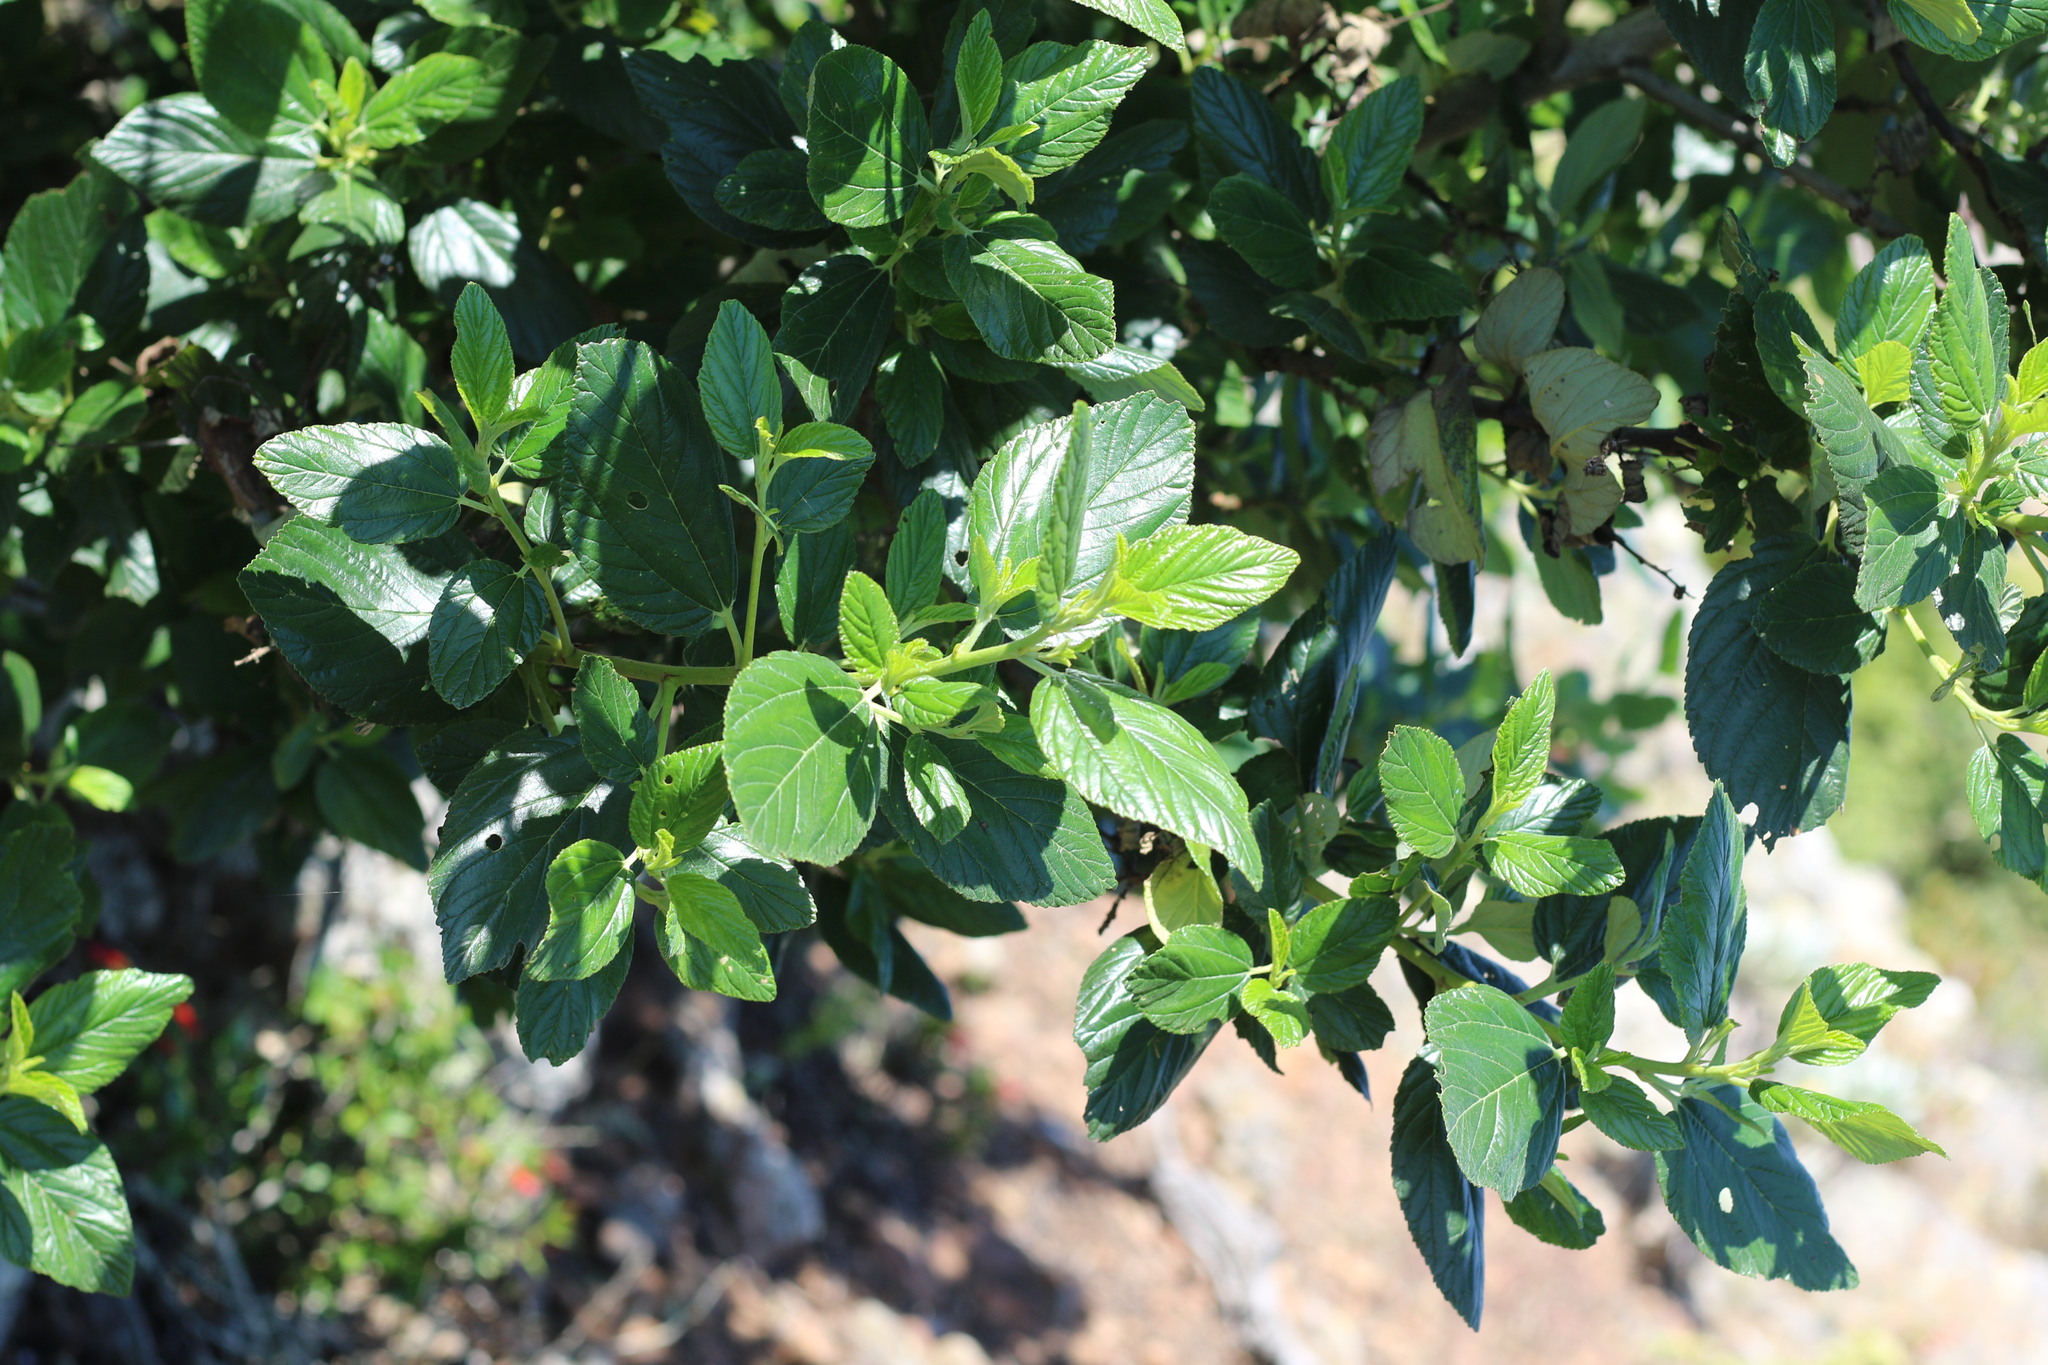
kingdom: Plantae
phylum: Tracheophyta
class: Magnoliopsida
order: Rosales
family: Rhamnaceae
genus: Ceanothus
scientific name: Ceanothus arboreus
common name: Catalina mountain-lilac
